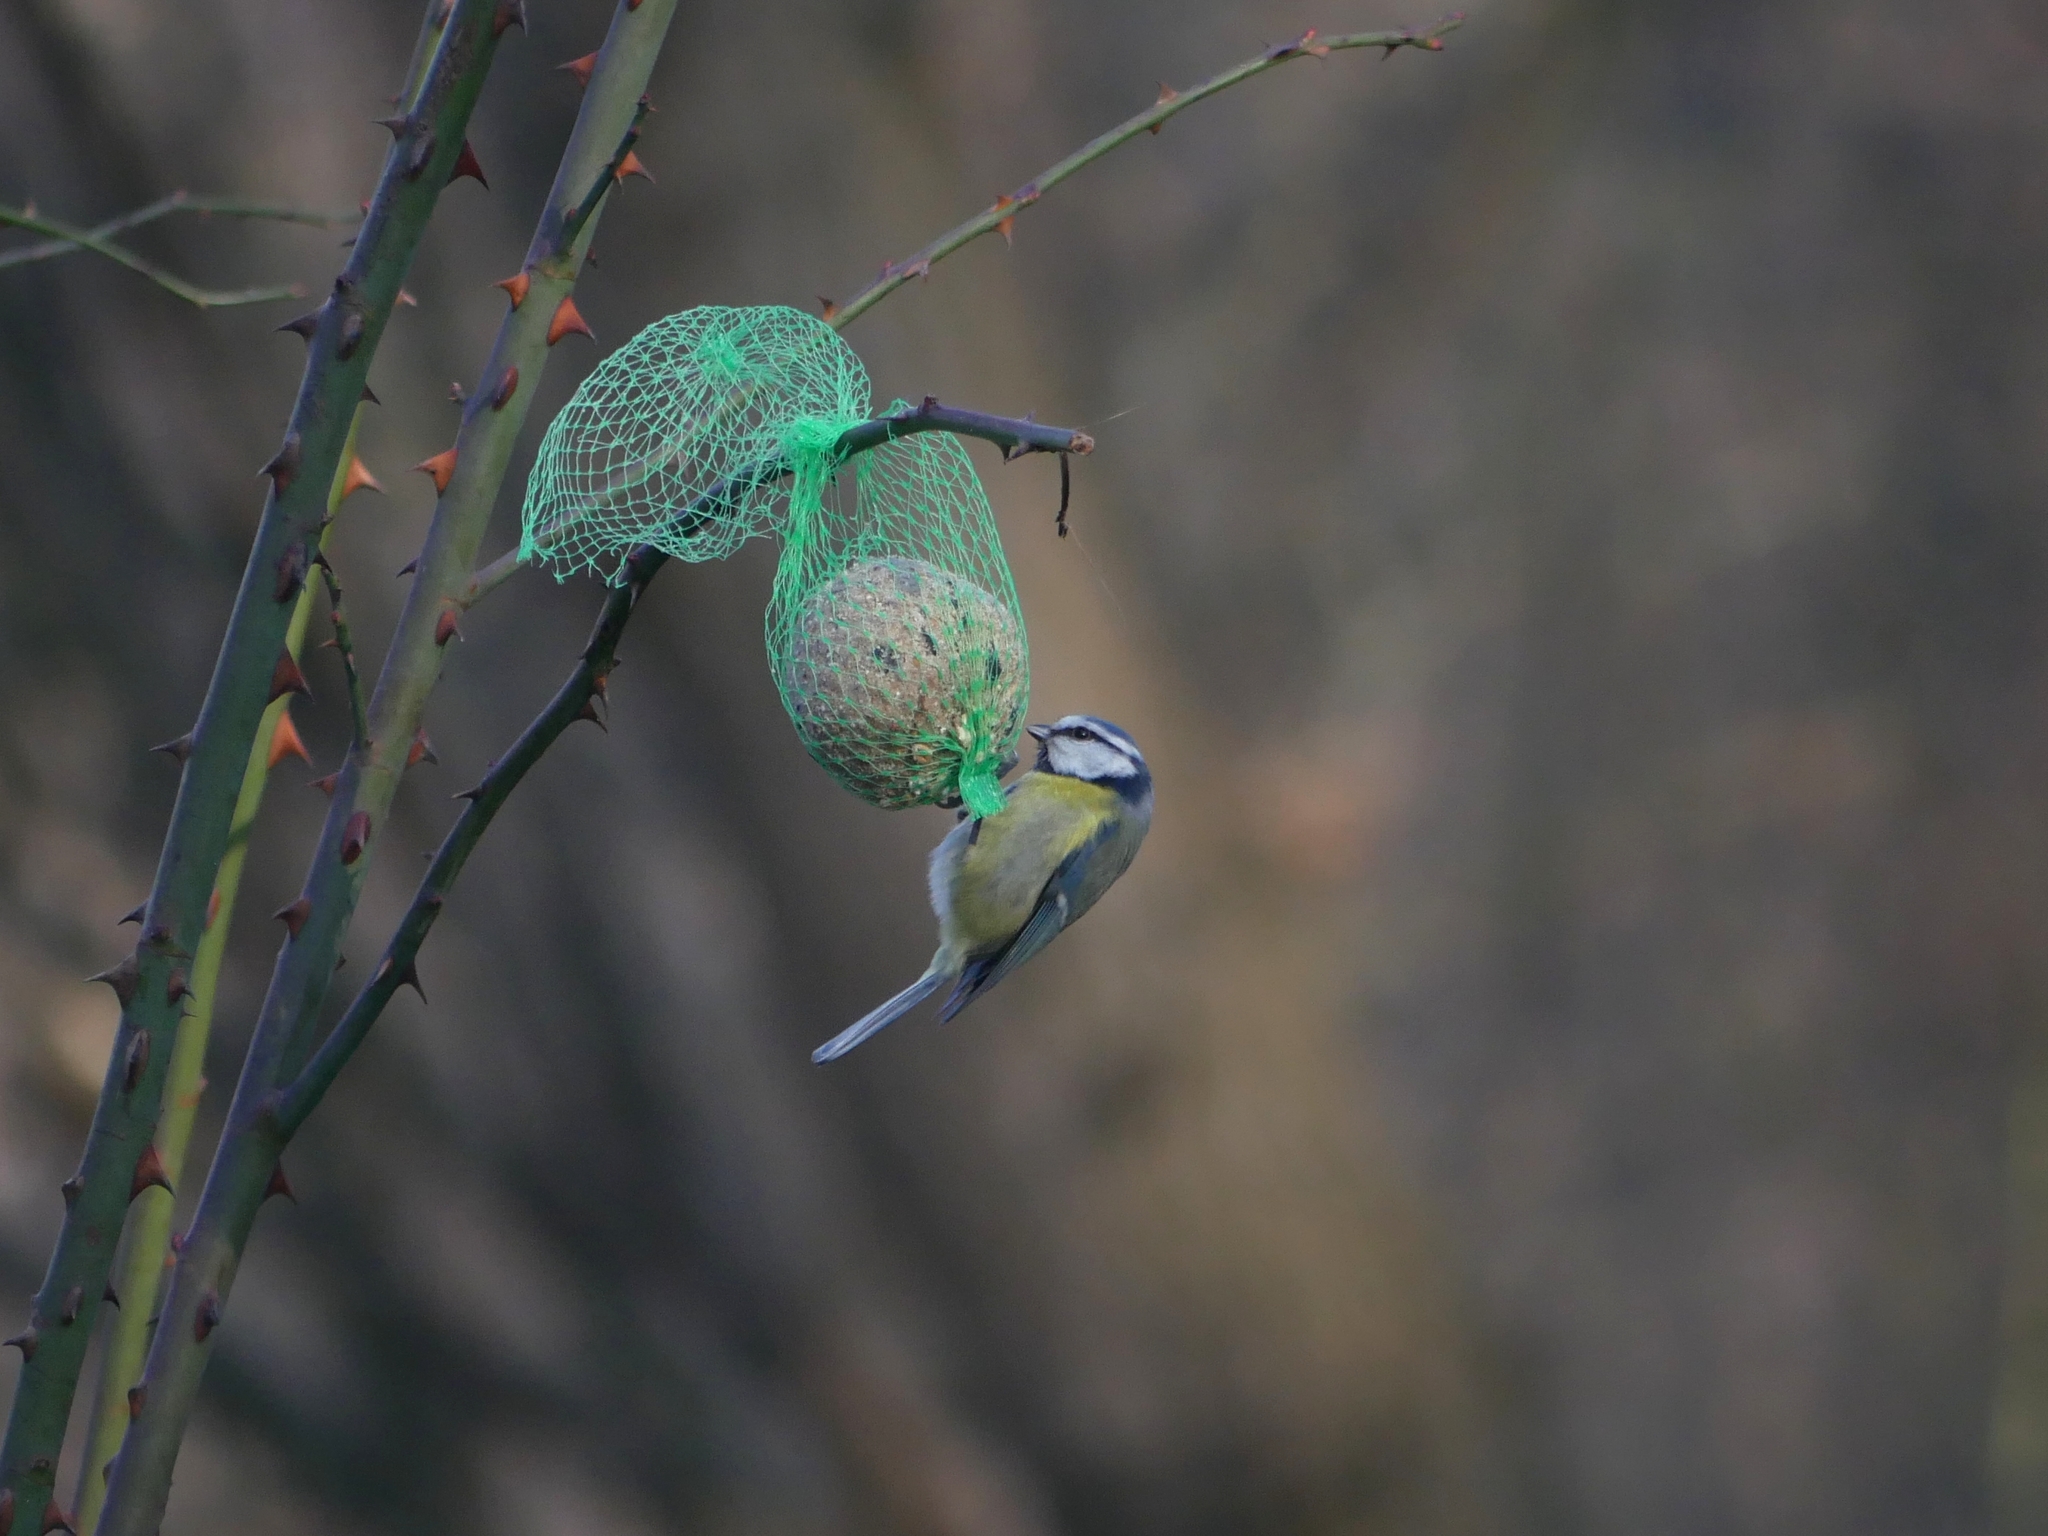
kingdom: Animalia
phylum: Chordata
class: Aves
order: Passeriformes
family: Paridae
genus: Cyanistes
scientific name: Cyanistes caeruleus
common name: Eurasian blue tit
